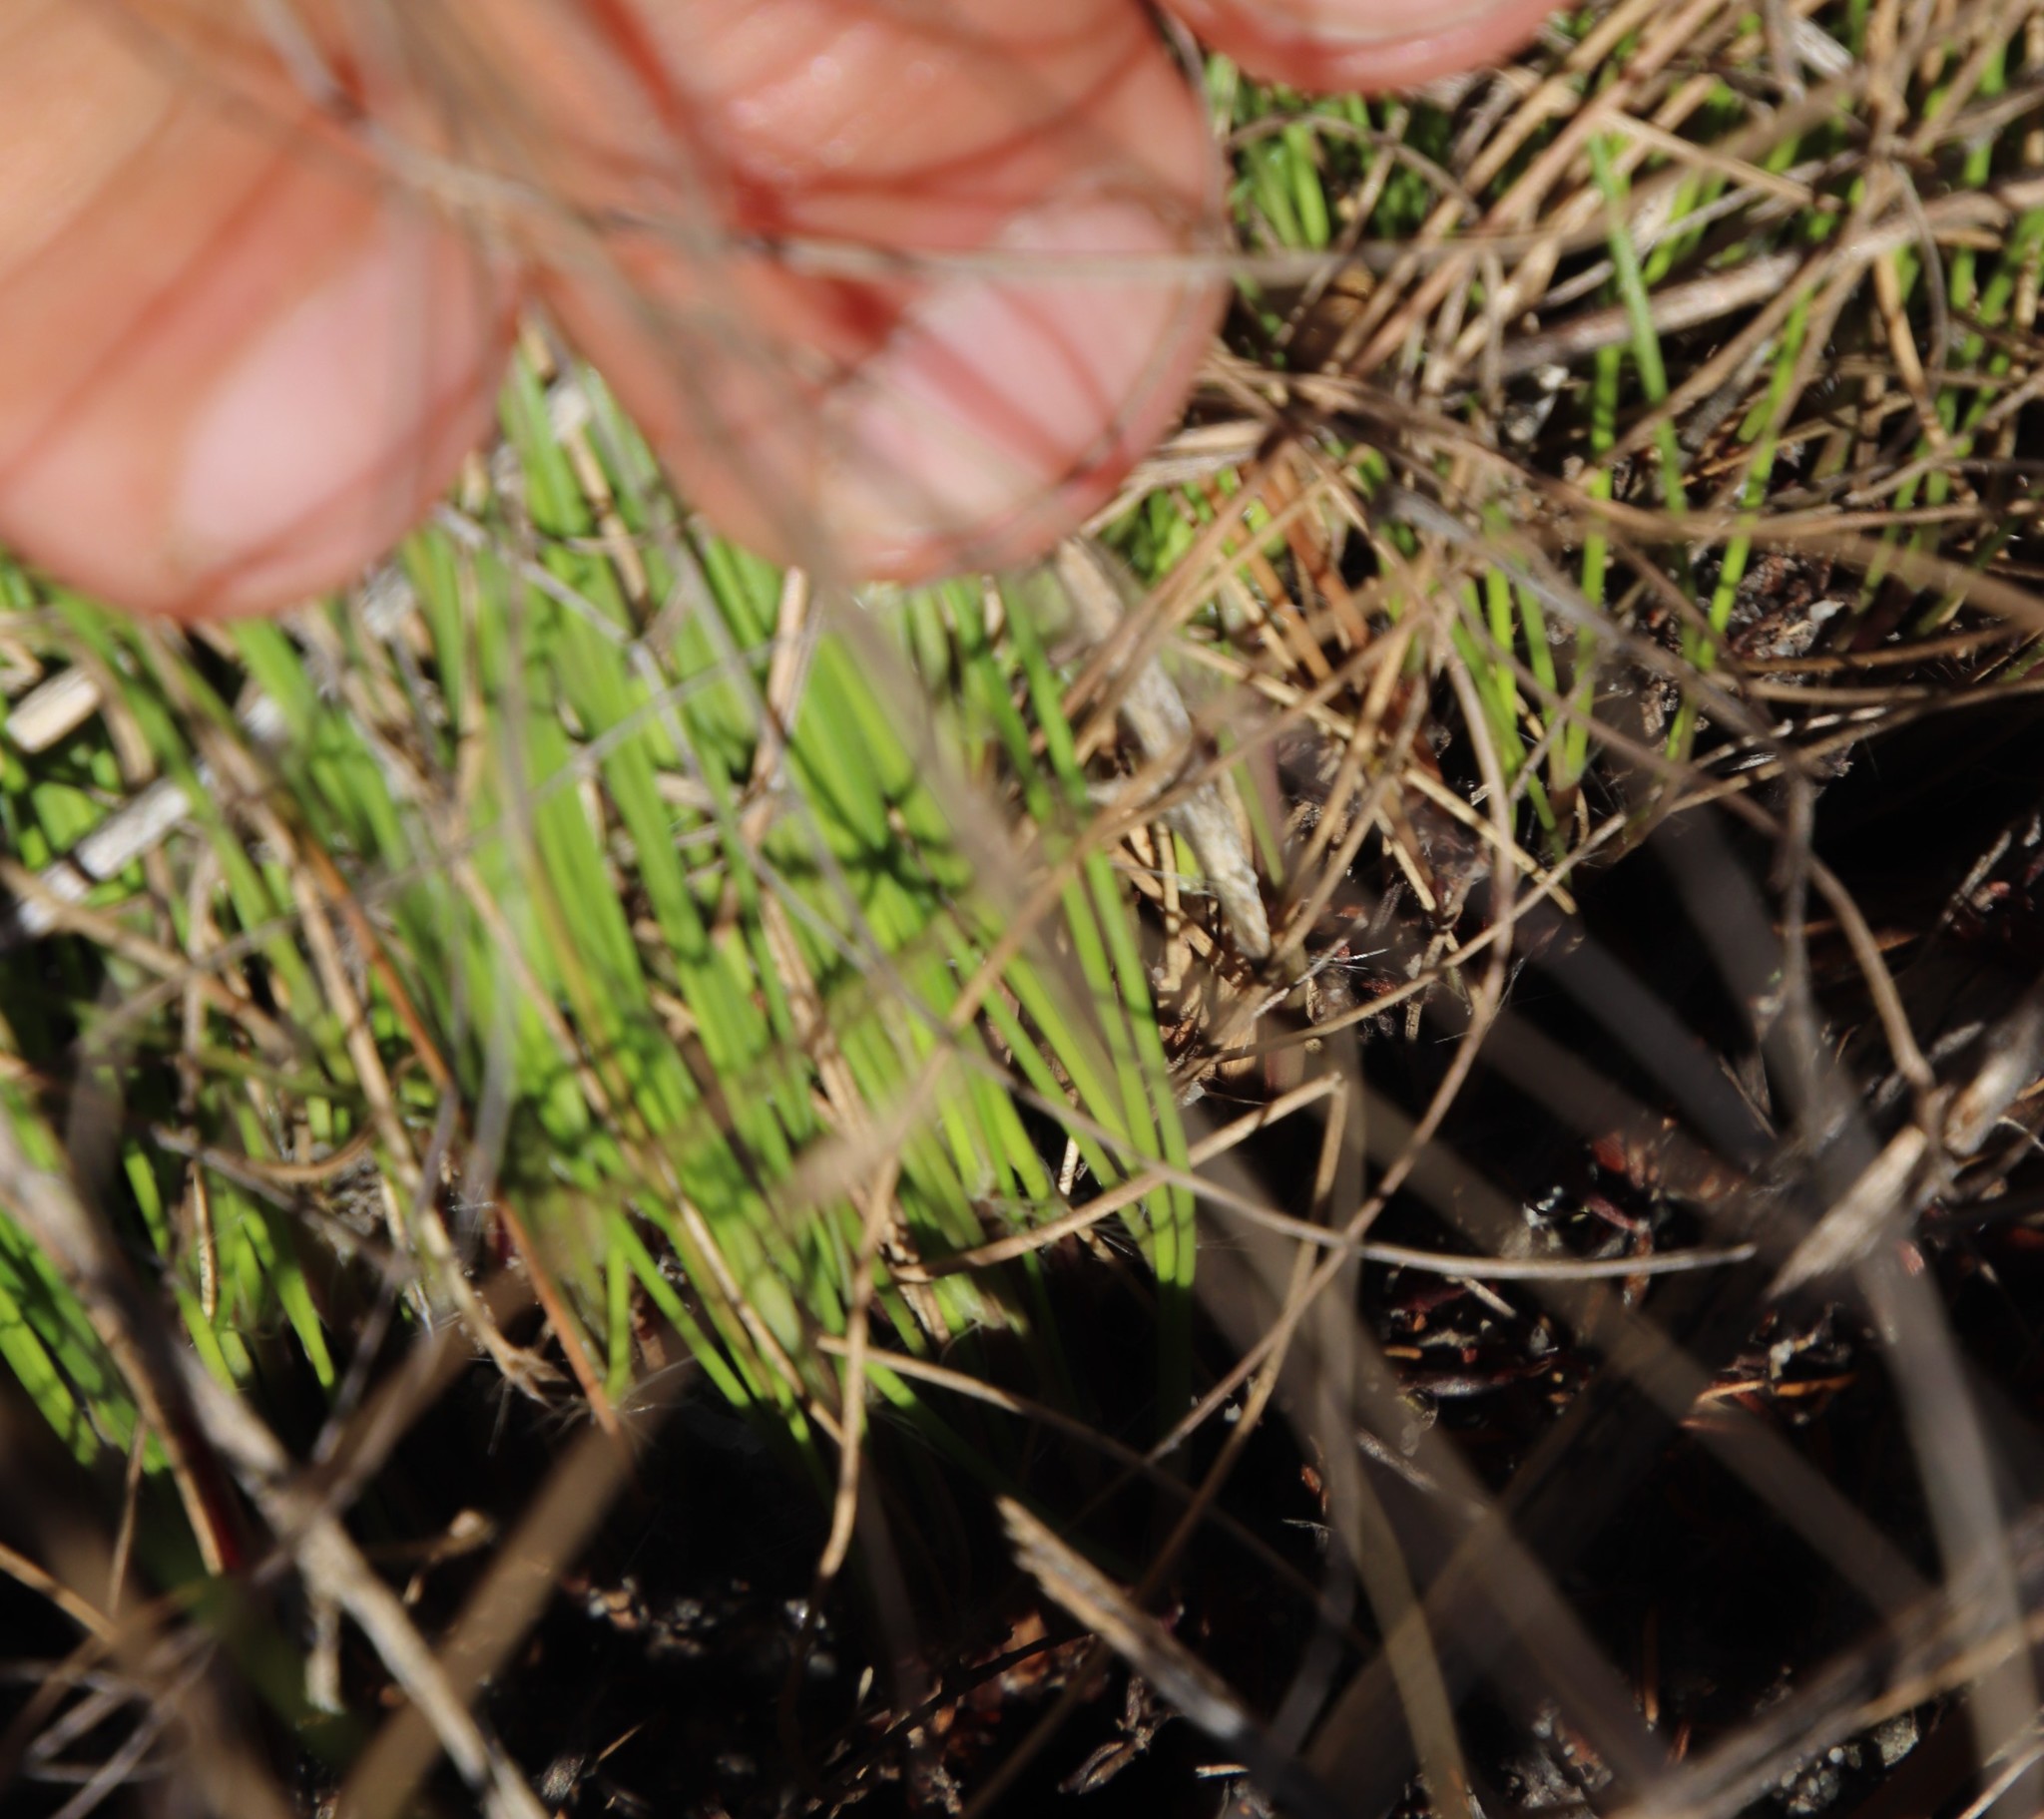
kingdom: Plantae
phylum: Tracheophyta
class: Liliopsida
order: Poales
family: Poaceae
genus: Tenaxia
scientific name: Tenaxia stricta
